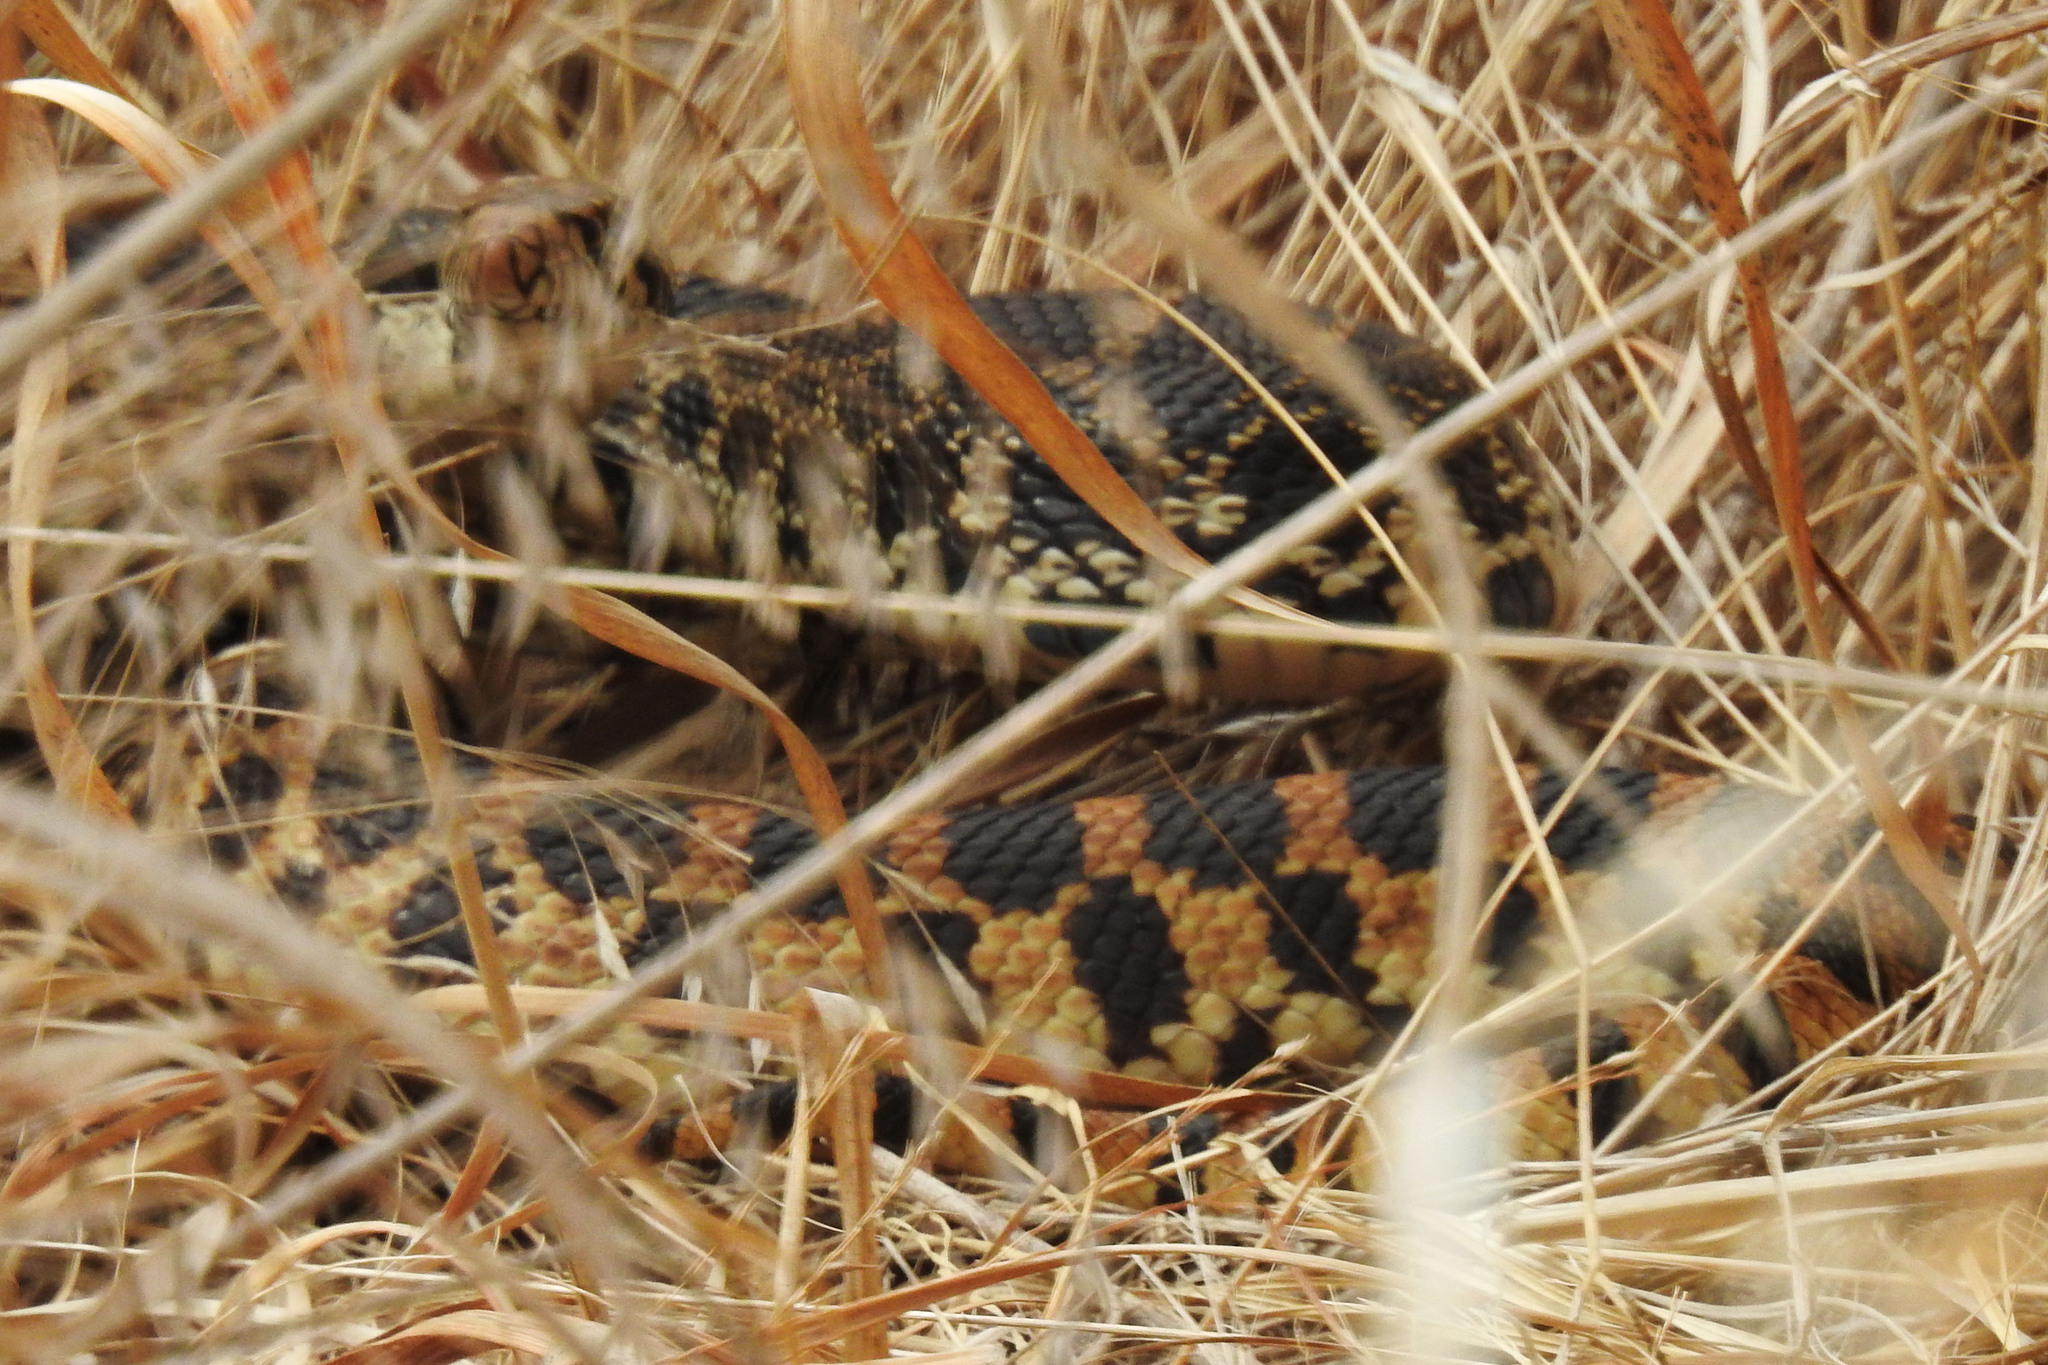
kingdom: Animalia
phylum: Chordata
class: Squamata
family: Colubridae
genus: Pituophis
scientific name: Pituophis catenifer
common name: Gopher snake
